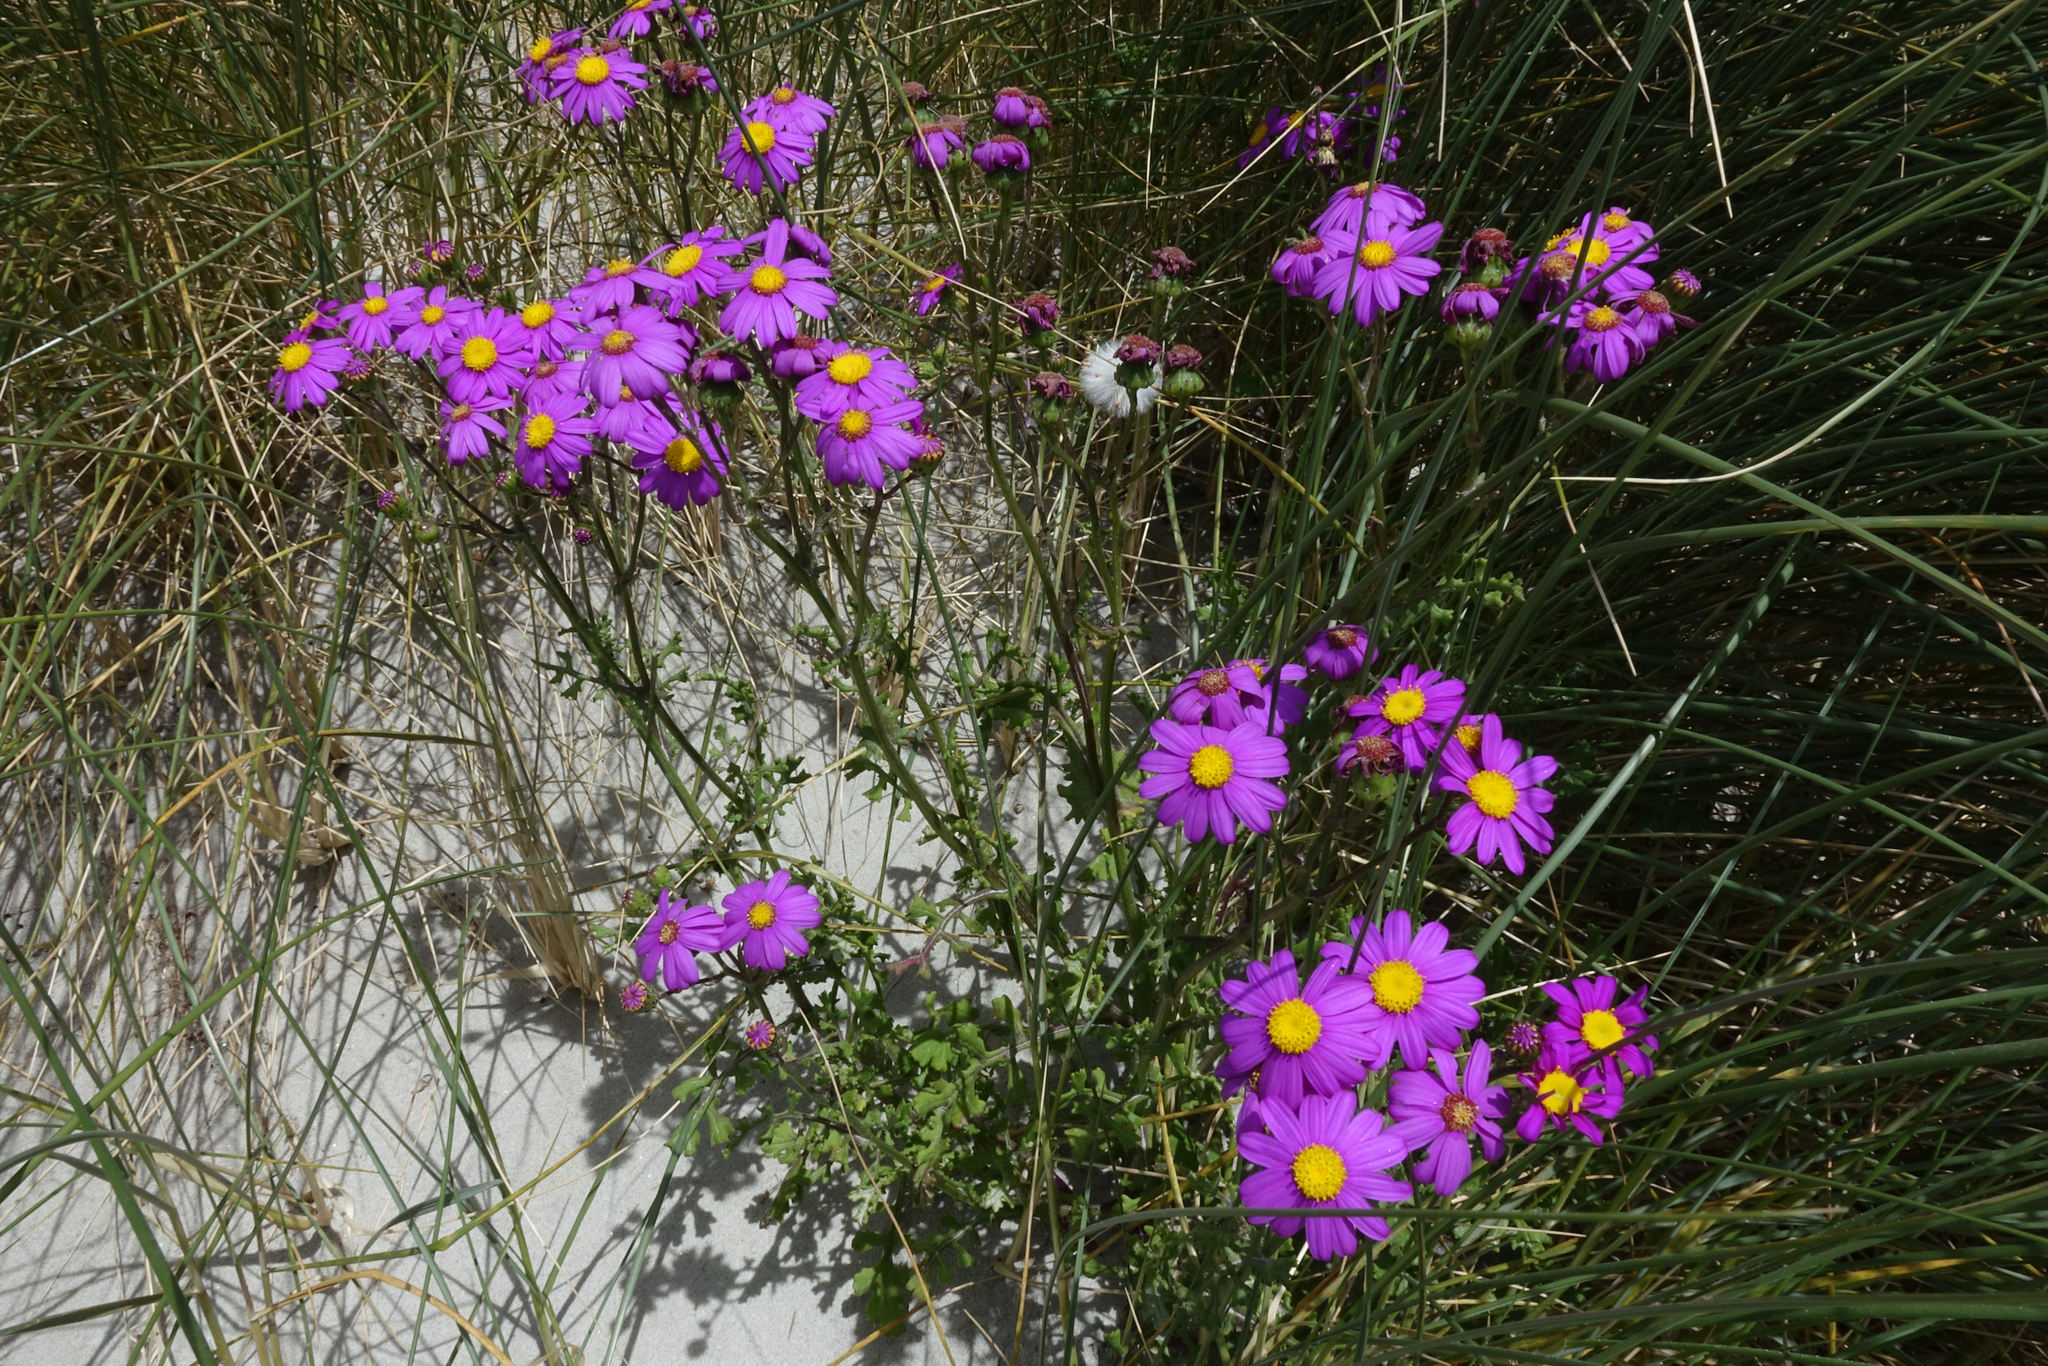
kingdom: Plantae
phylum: Tracheophyta
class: Magnoliopsida
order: Asterales
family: Asteraceae
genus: Senecio
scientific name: Senecio elegans
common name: Purple groundsel
